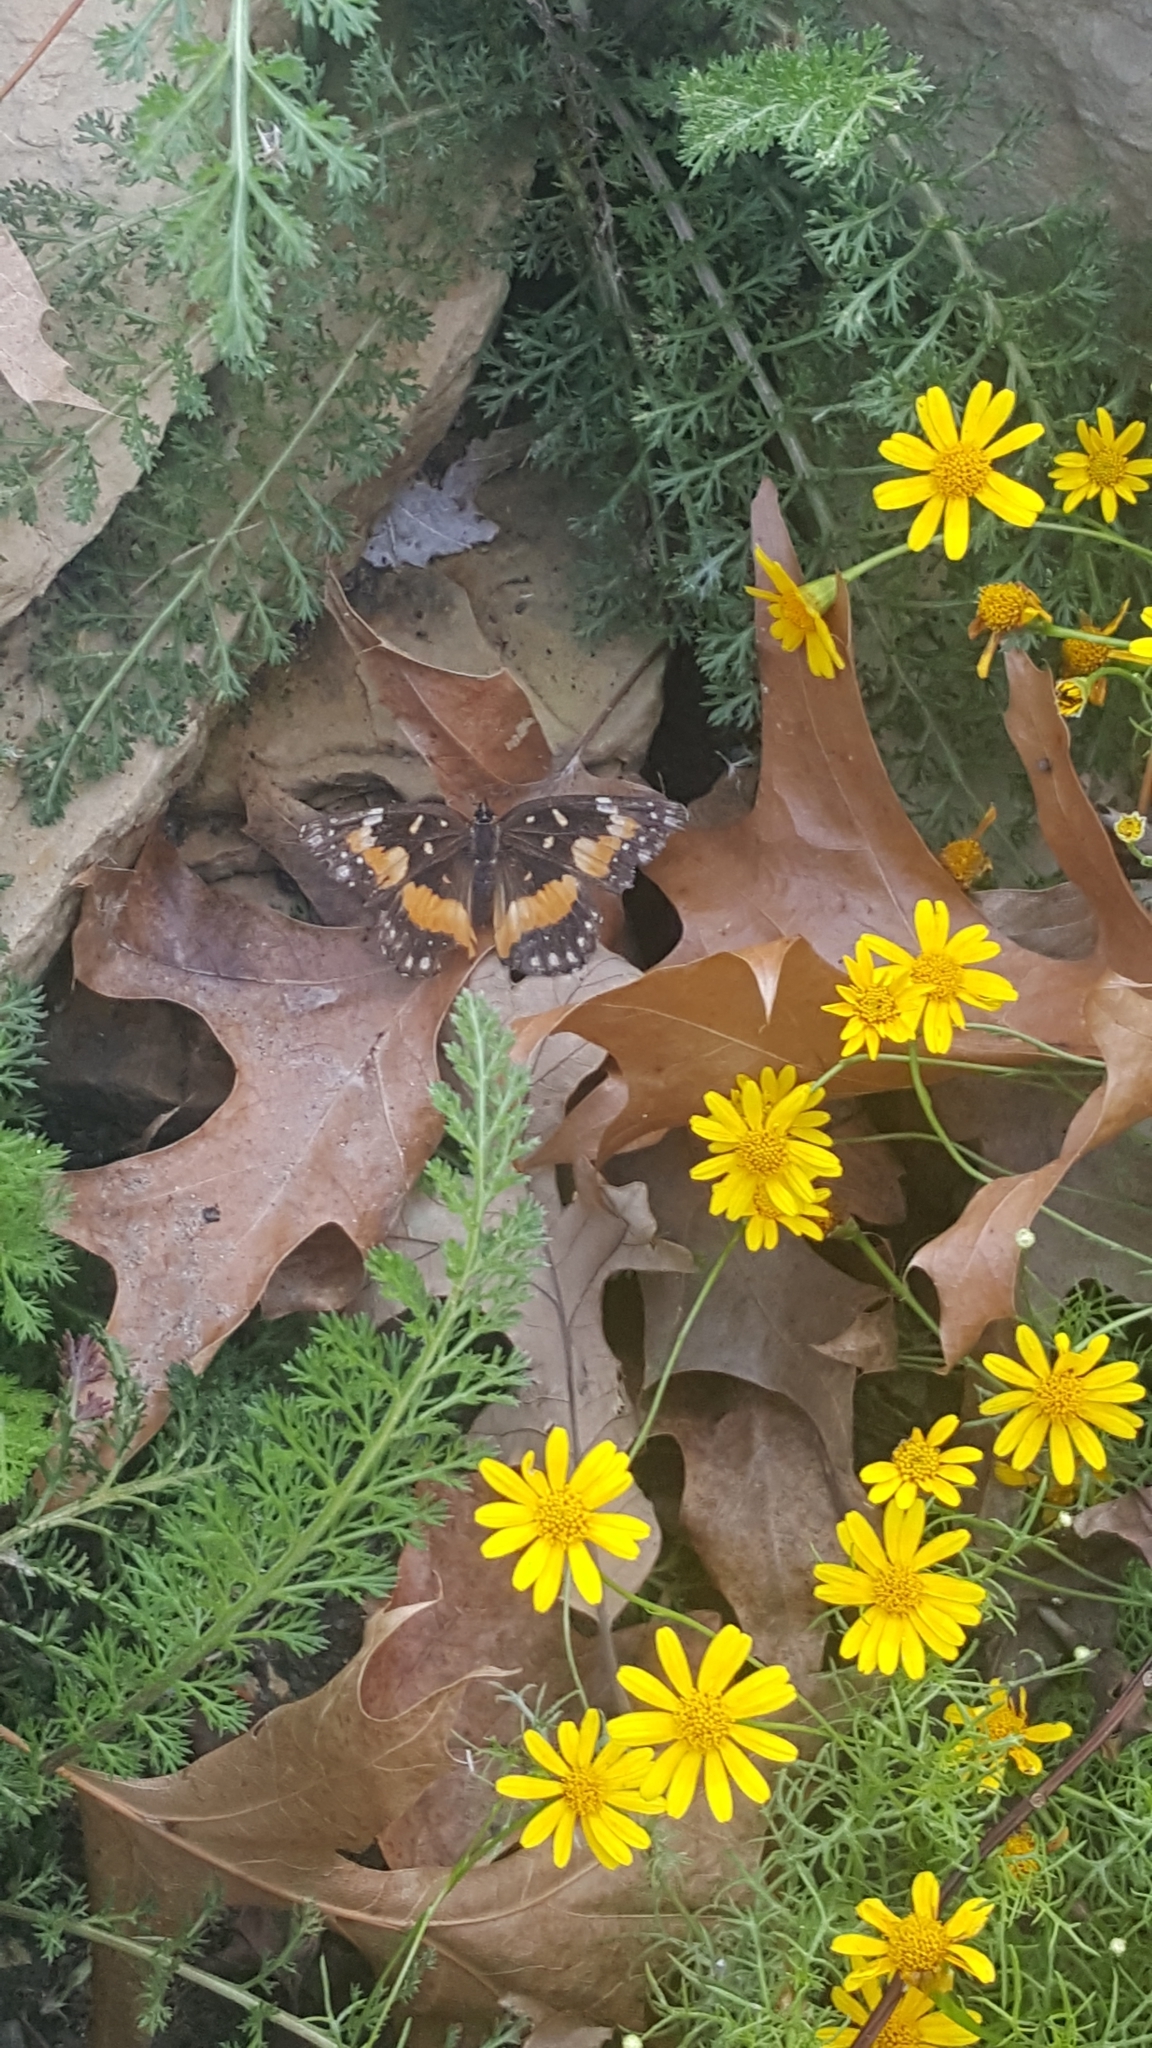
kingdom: Animalia
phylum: Arthropoda
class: Insecta
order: Lepidoptera
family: Nymphalidae
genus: Chlosyne
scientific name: Chlosyne lacinia
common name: Bordered patch
